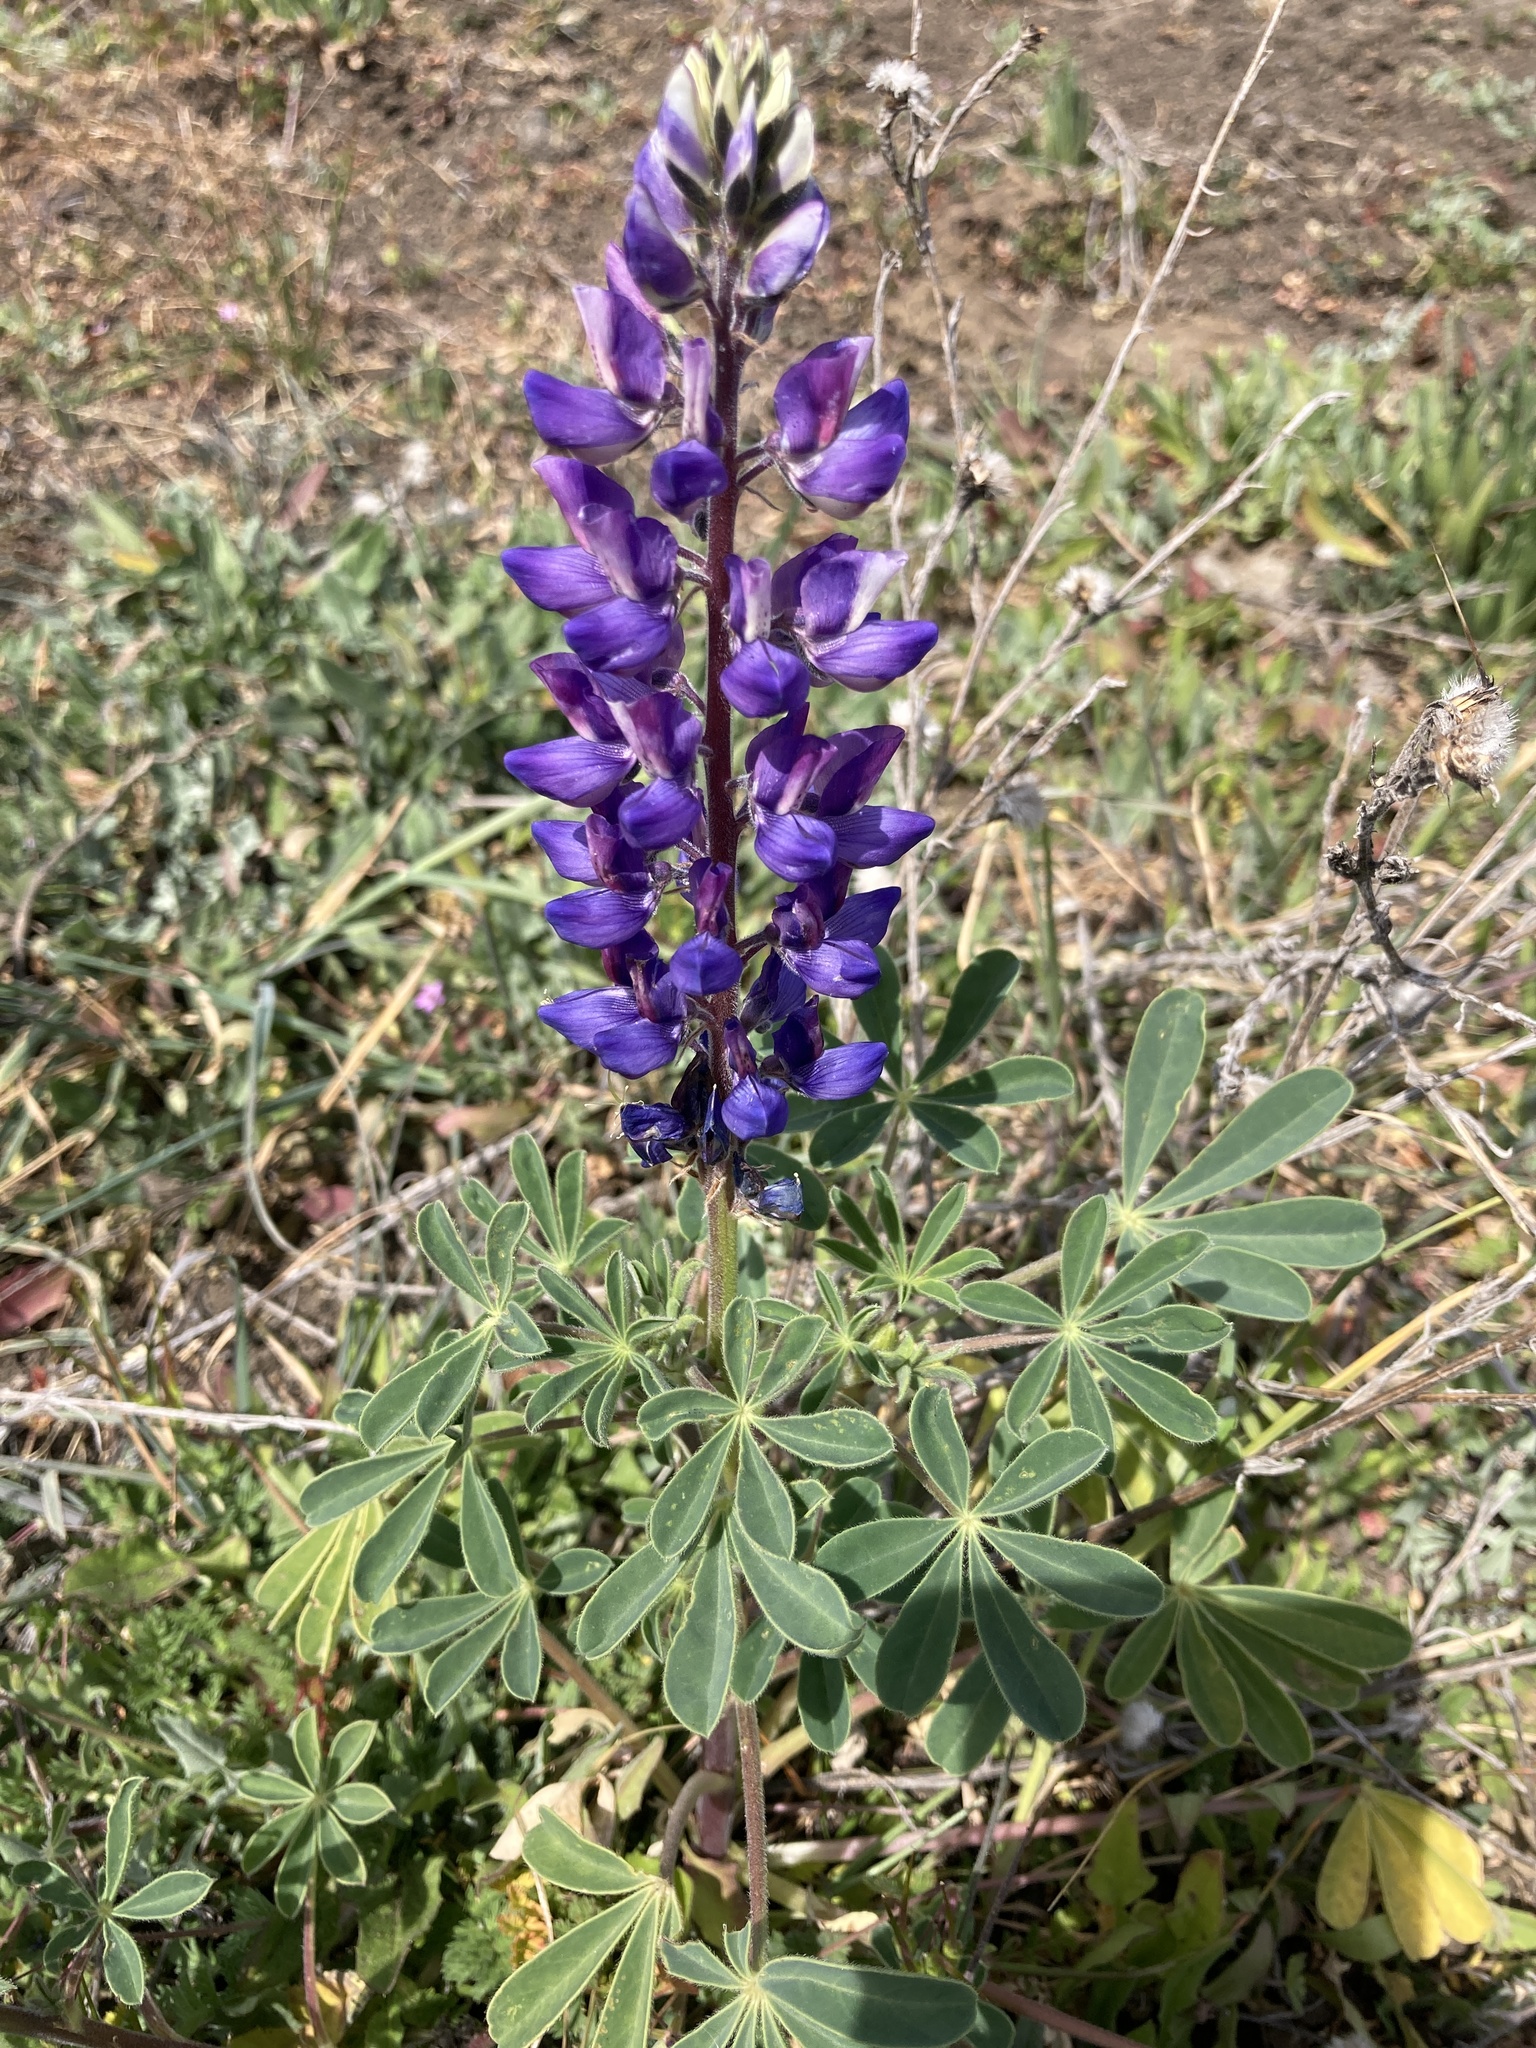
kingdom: Plantae
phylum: Tracheophyta
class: Magnoliopsida
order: Fabales
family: Fabaceae
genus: Lupinus
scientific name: Lupinus succulentus
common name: Arroyo lupine
